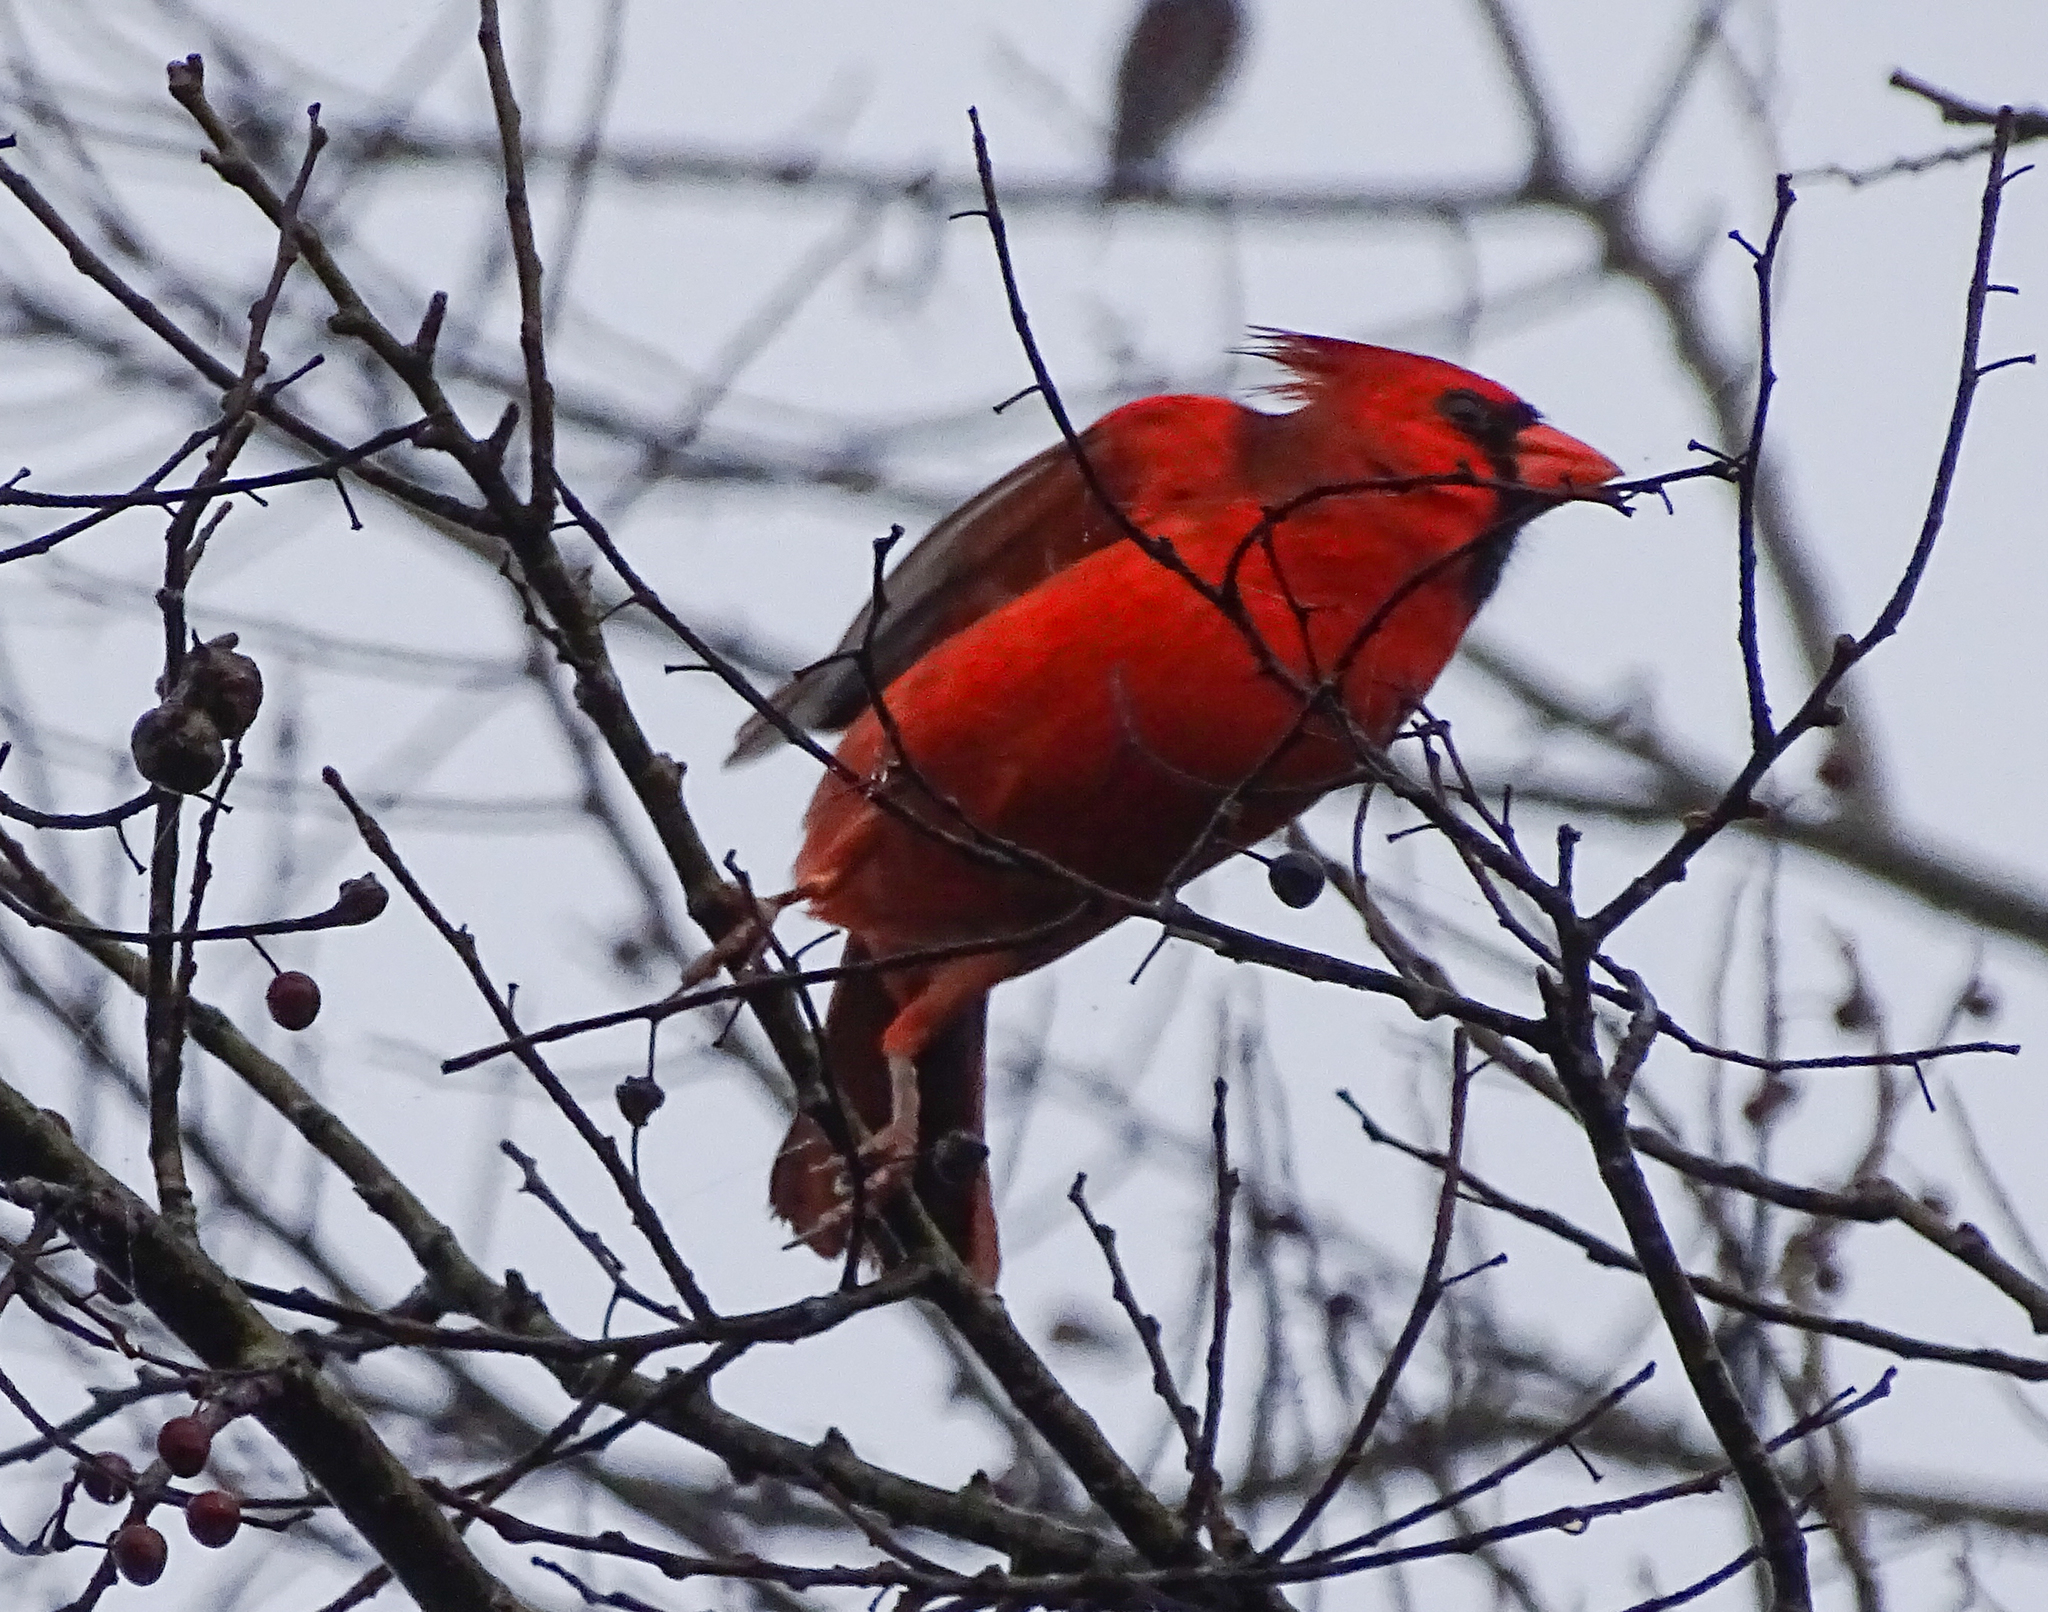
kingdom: Animalia
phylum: Chordata
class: Aves
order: Passeriformes
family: Cardinalidae
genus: Cardinalis
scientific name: Cardinalis cardinalis
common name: Northern cardinal
